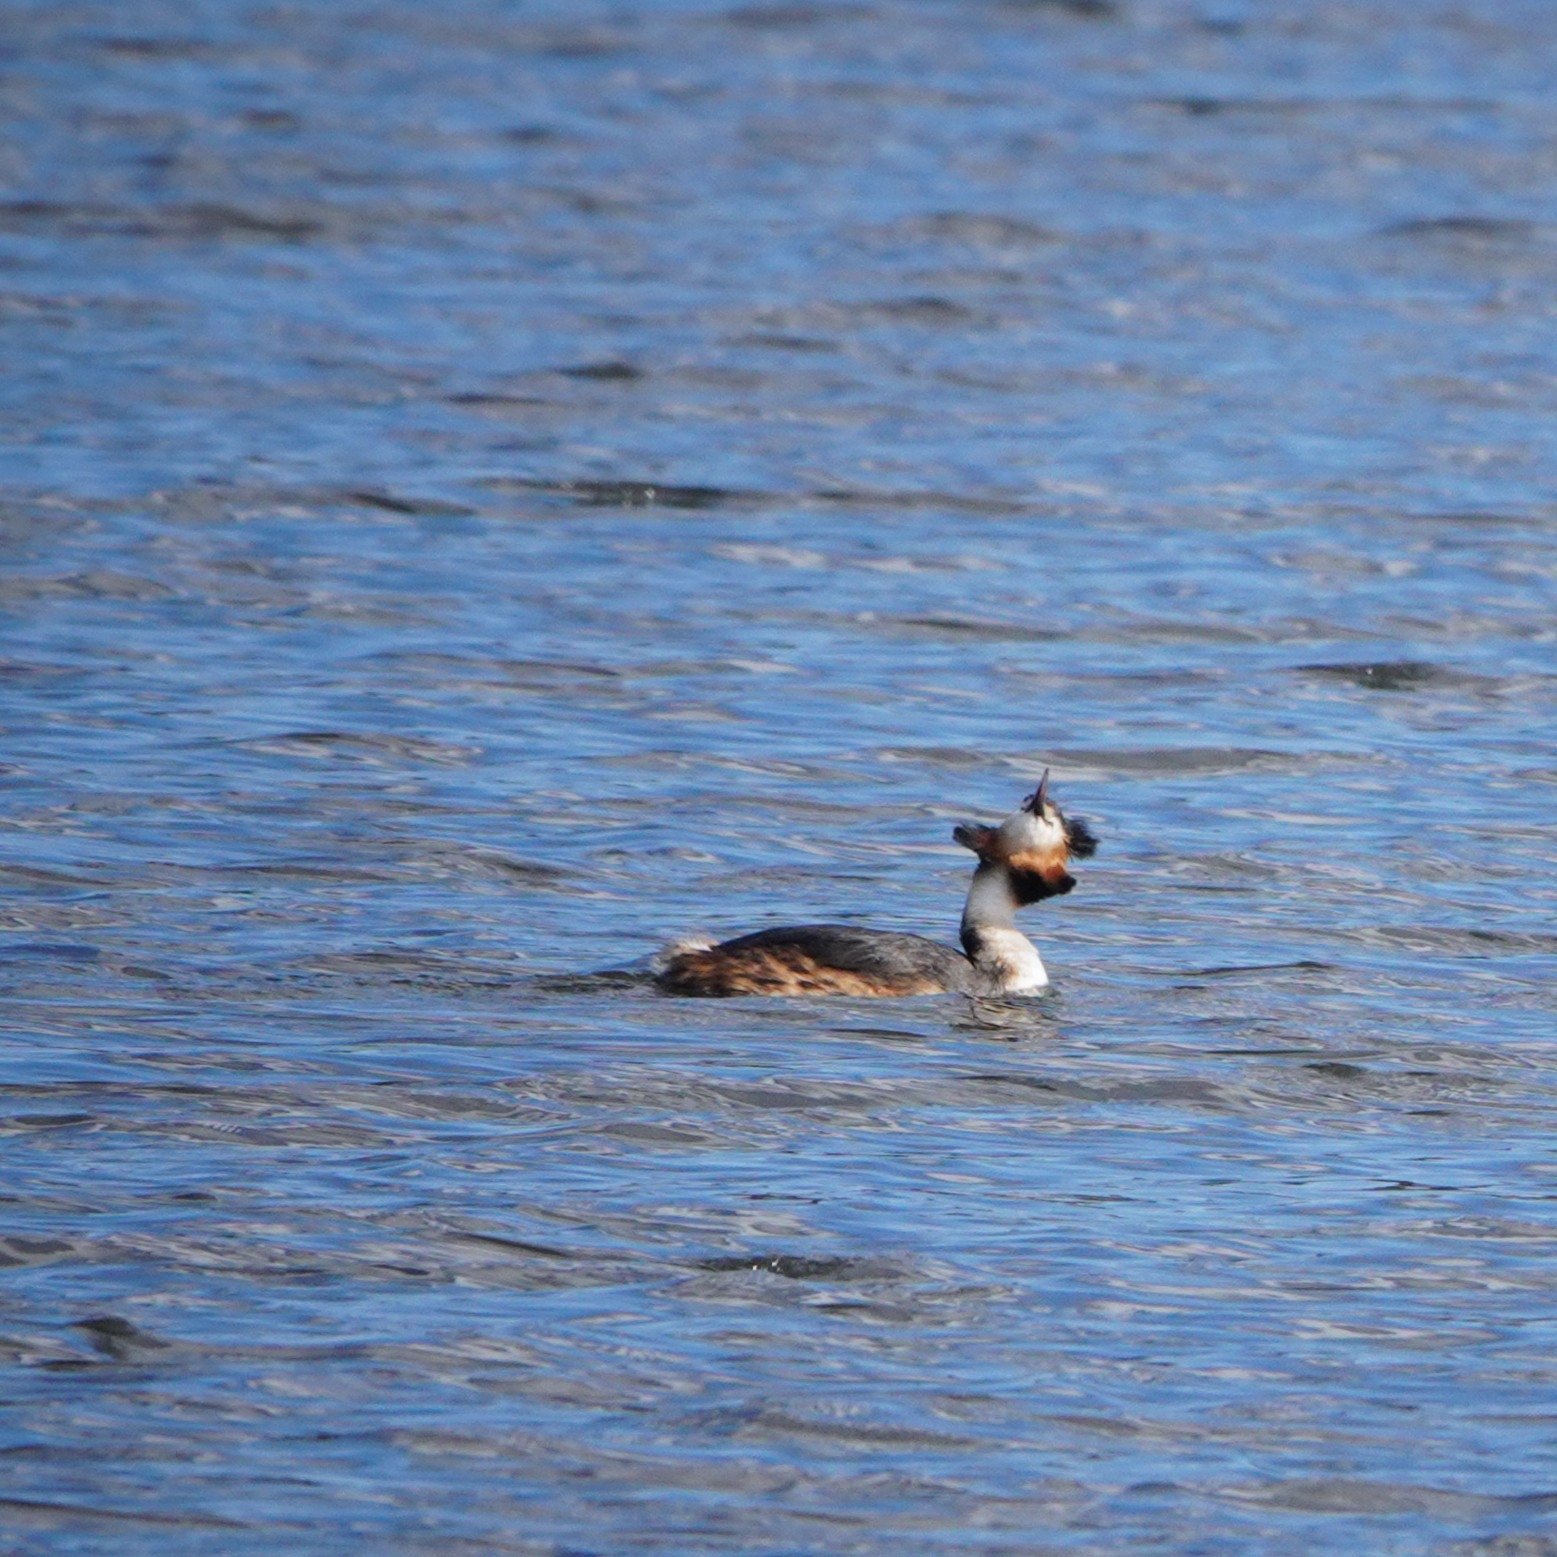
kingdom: Animalia
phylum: Chordata
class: Aves
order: Podicipediformes
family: Podicipedidae
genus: Podiceps
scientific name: Podiceps cristatus
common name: Great crested grebe
